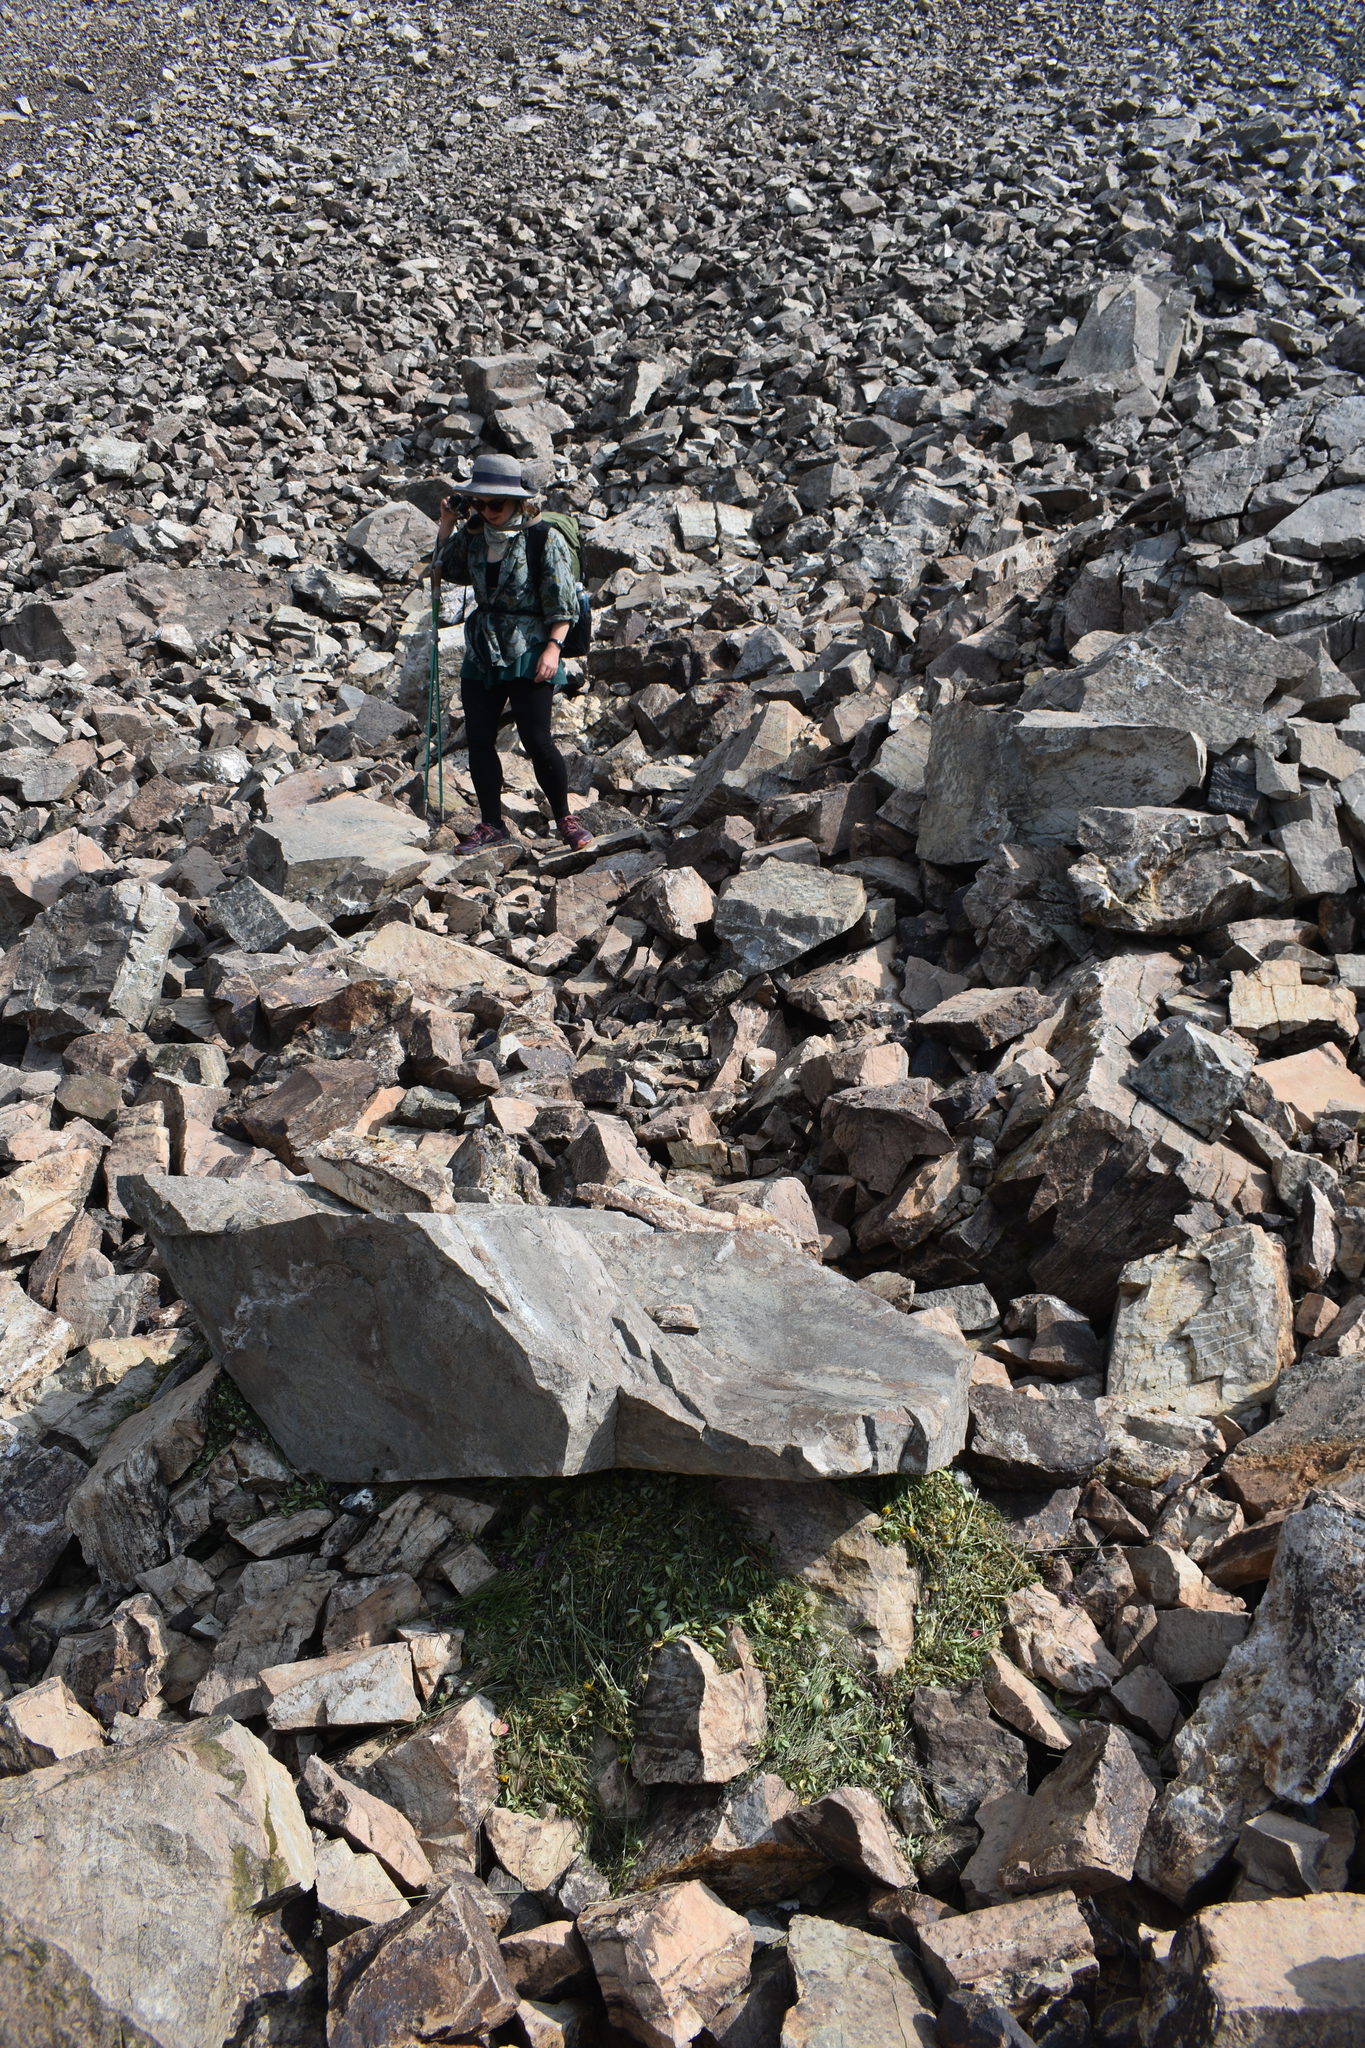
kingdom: Animalia
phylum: Chordata
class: Mammalia
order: Lagomorpha
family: Ochotonidae
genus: Ochotona
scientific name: Ochotona princeps
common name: American pika
